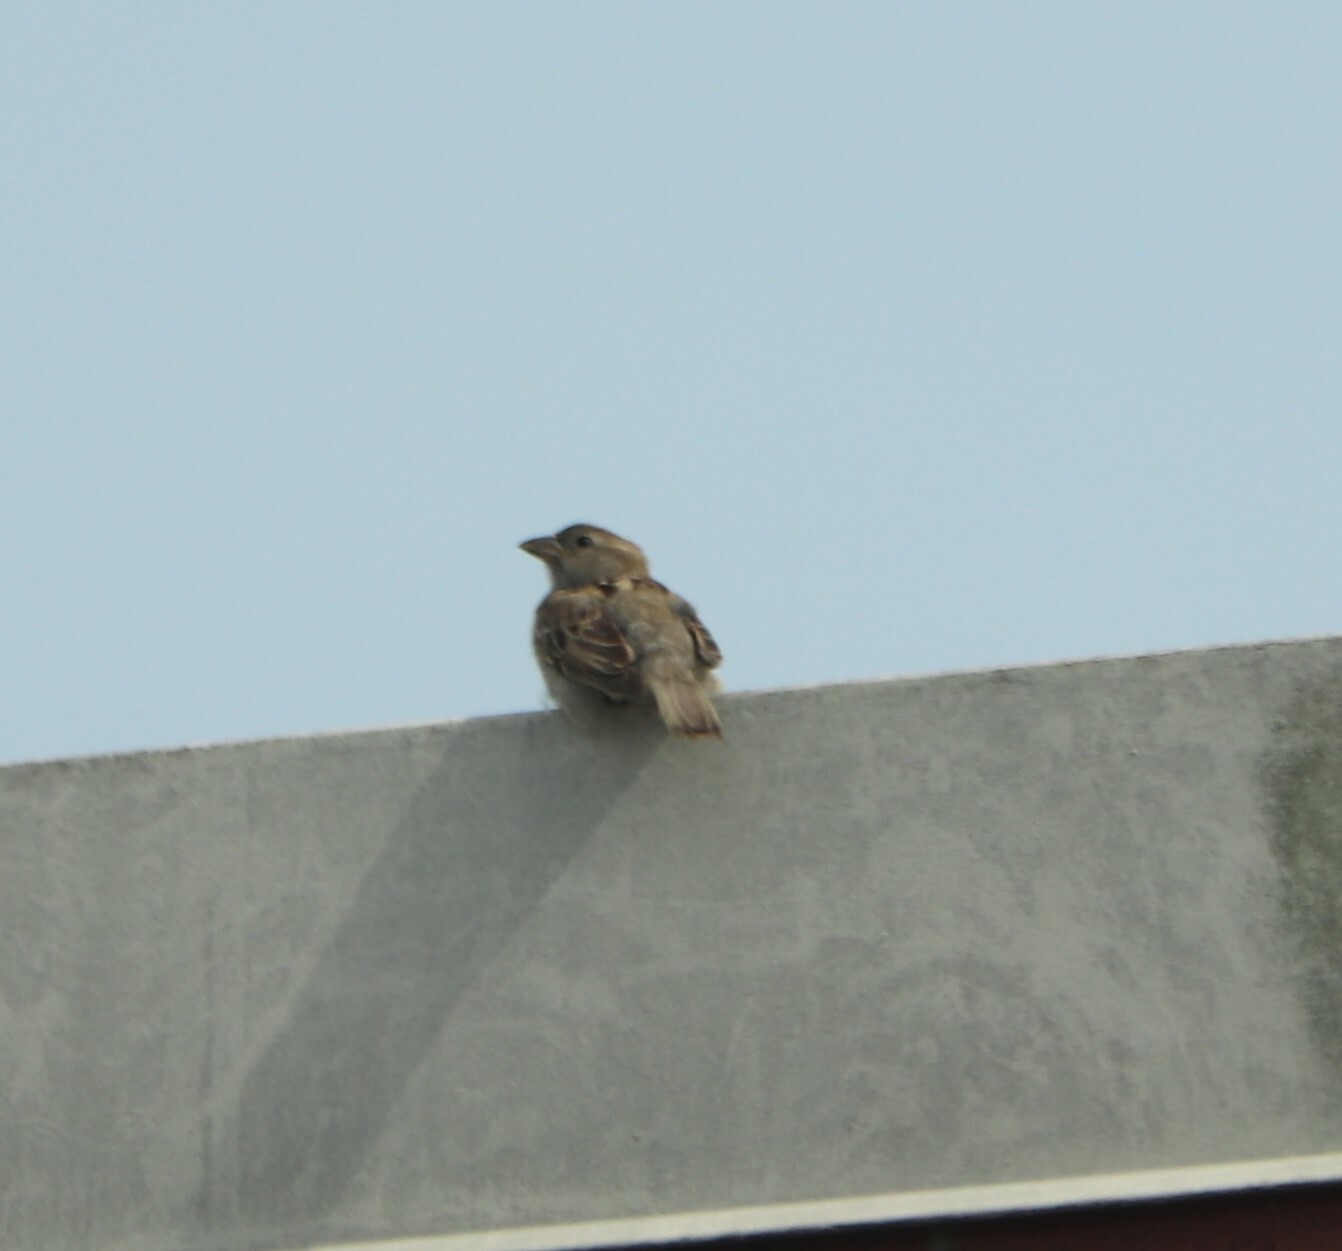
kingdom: Animalia
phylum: Chordata
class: Aves
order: Passeriformes
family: Passeridae
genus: Passer
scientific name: Passer domesticus
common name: House sparrow
